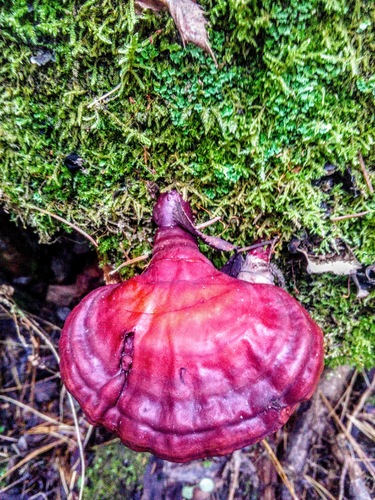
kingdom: Fungi
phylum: Basidiomycota
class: Agaricomycetes
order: Polyporales
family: Polyporaceae
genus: Ganoderma
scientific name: Ganoderma lucidum
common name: Lacquered bracket
